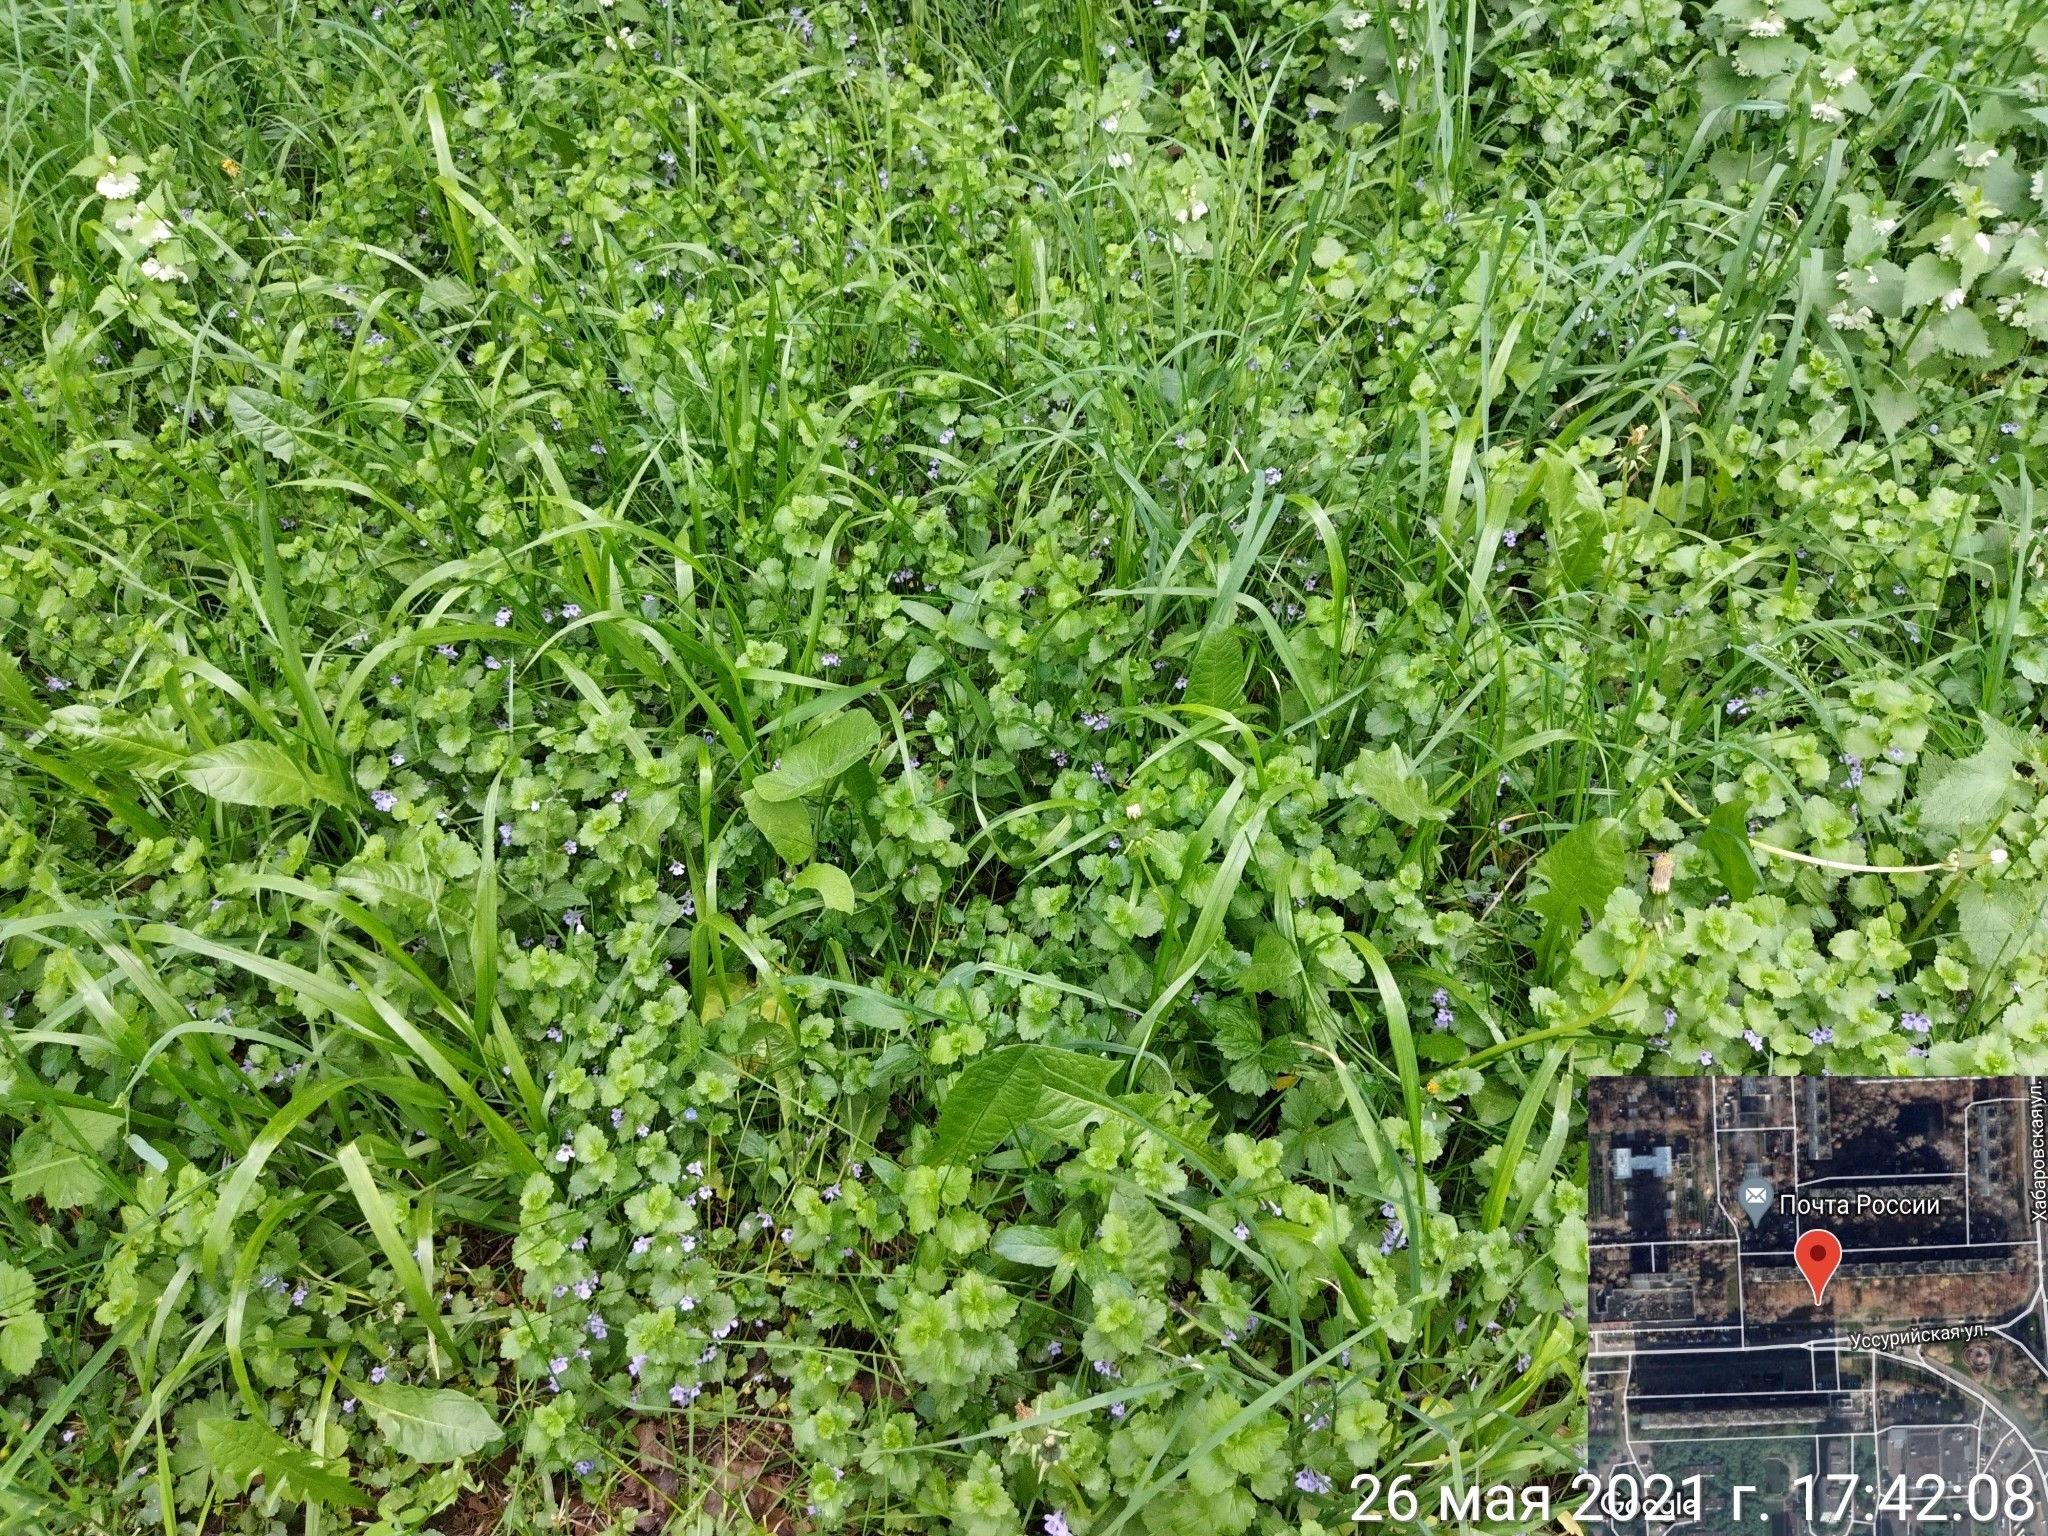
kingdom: Plantae
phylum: Tracheophyta
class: Magnoliopsida
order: Lamiales
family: Lamiaceae
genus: Glechoma
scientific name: Glechoma hederacea
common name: Ground ivy
